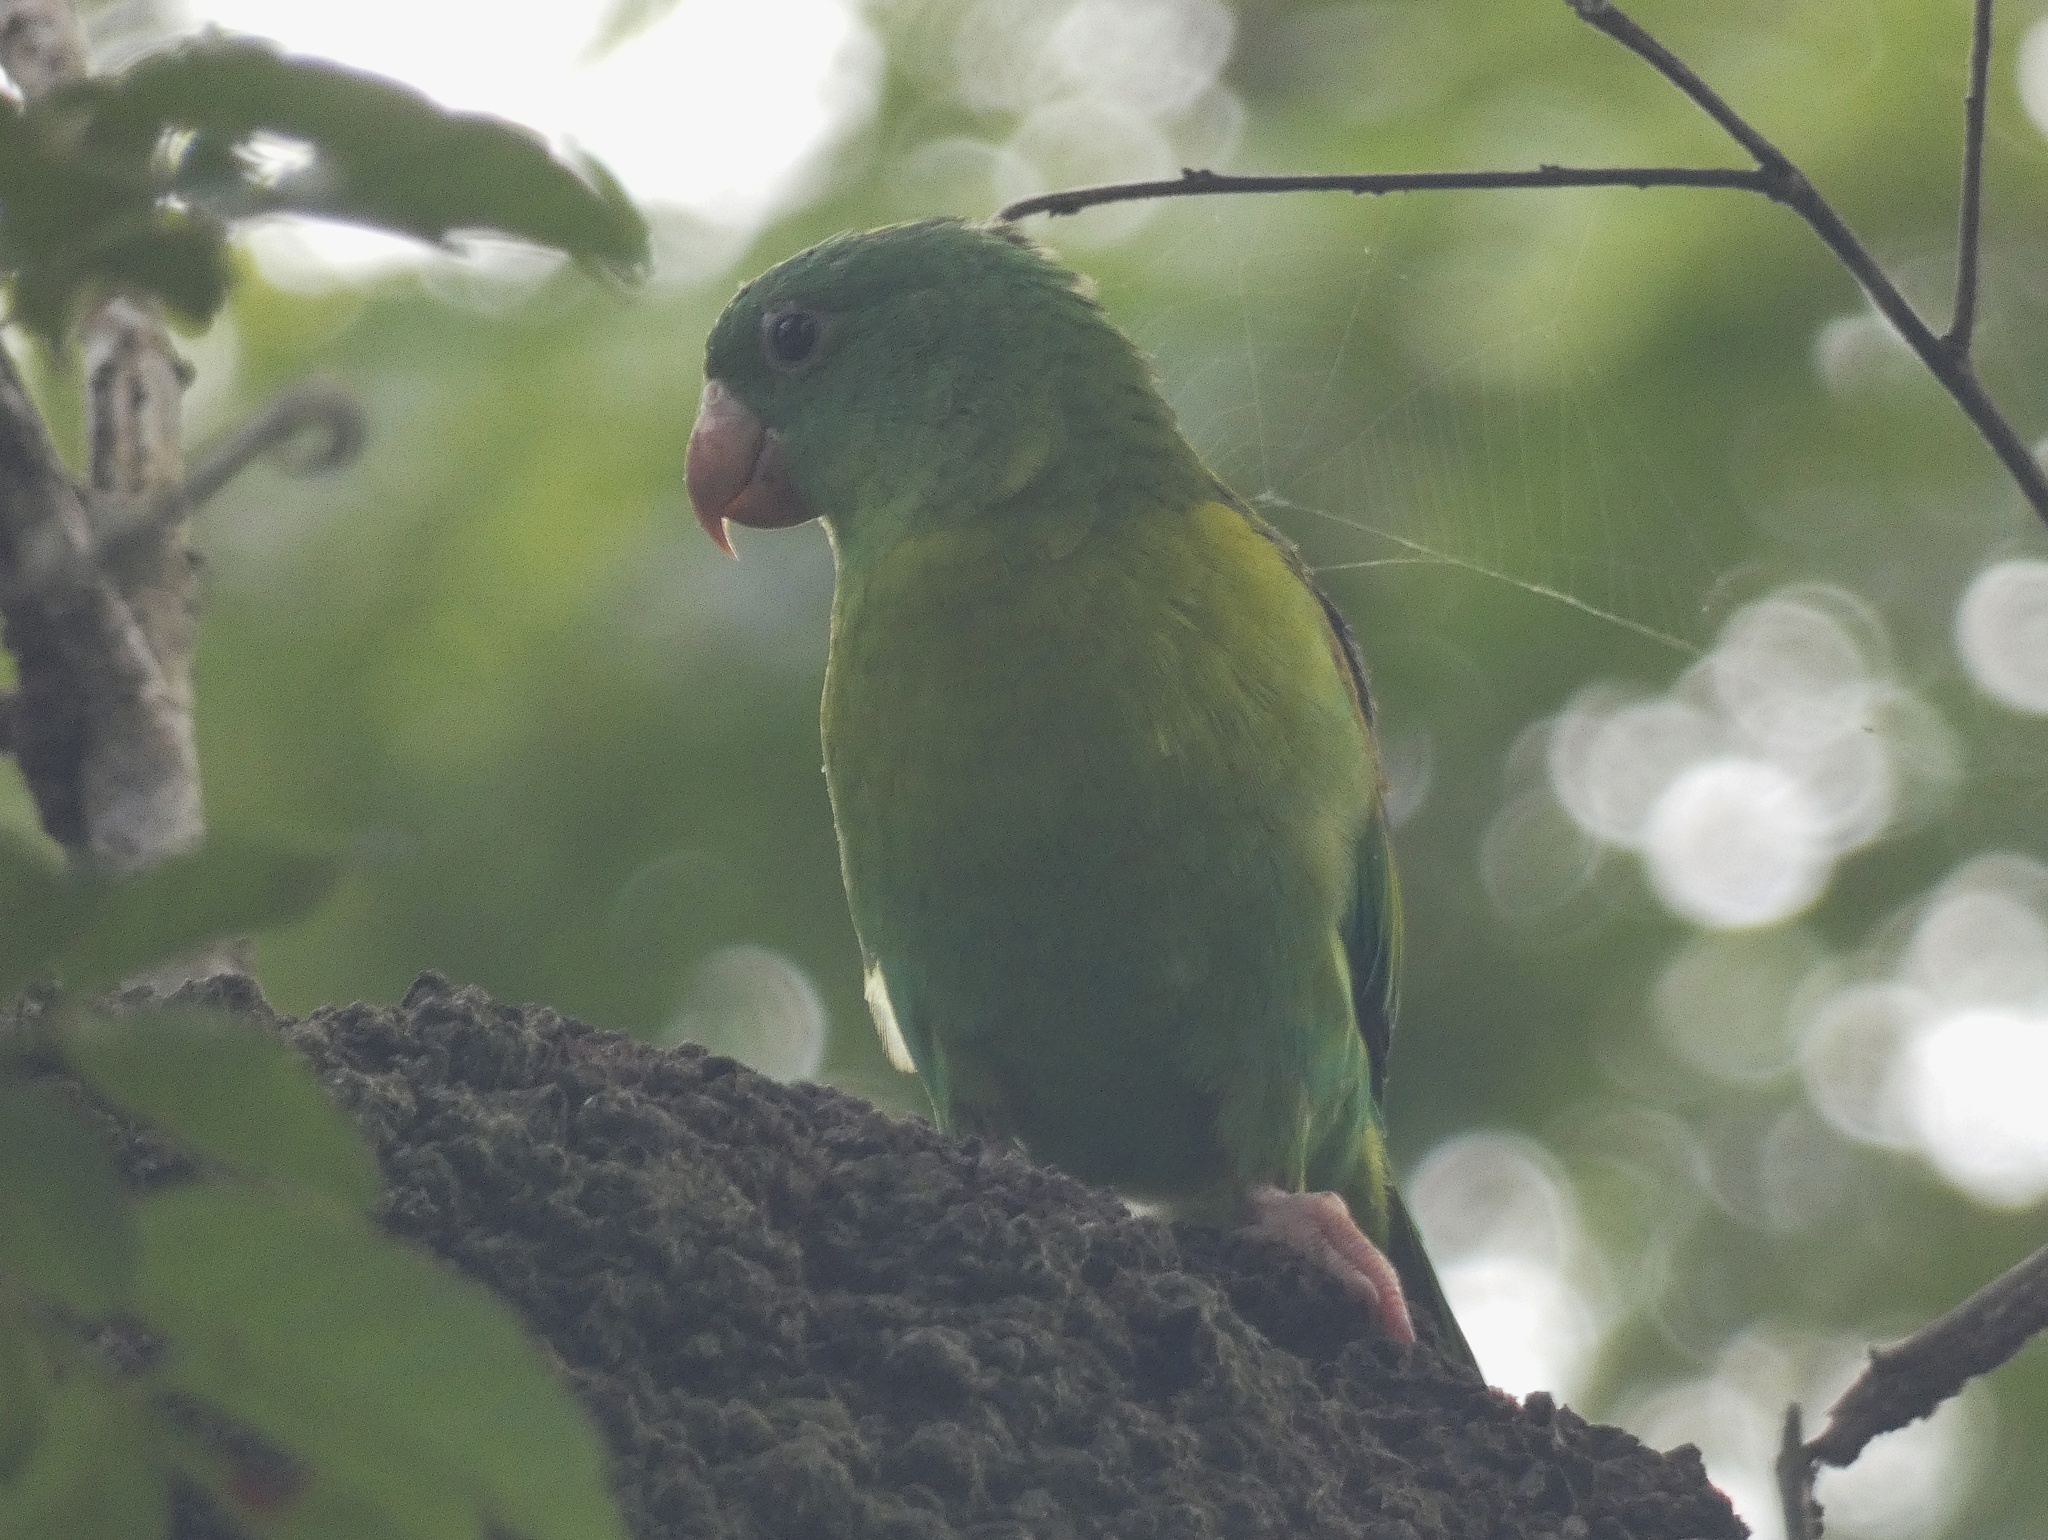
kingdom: Animalia
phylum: Chordata
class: Aves
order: Psittaciformes
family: Psittacidae
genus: Brotogeris
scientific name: Brotogeris jugularis
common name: Orange-chinned parakeet
